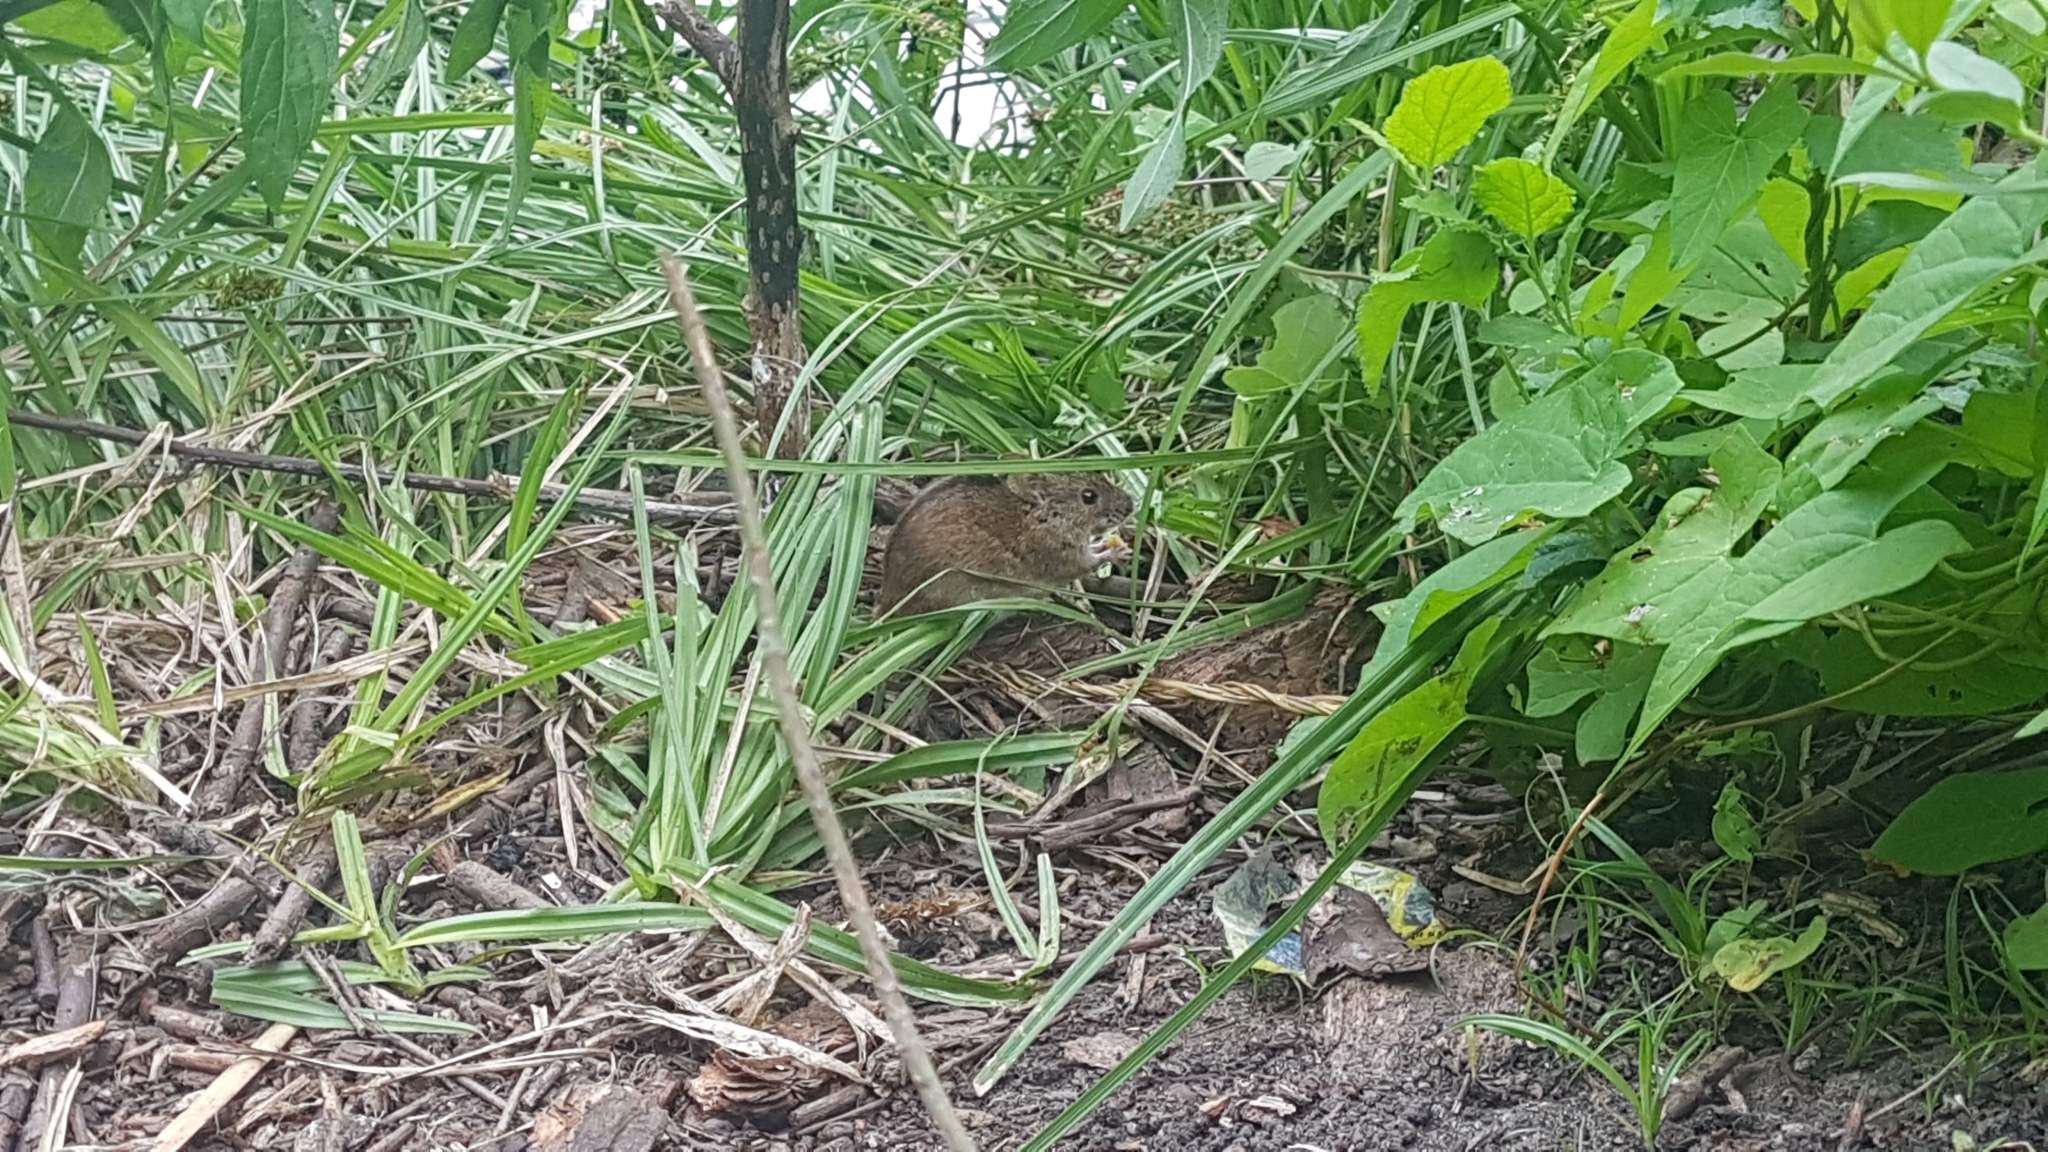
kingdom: Animalia
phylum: Chordata
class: Mammalia
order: Rodentia
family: Muridae
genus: Apodemus
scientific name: Apodemus agrarius
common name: Striped field mouse
